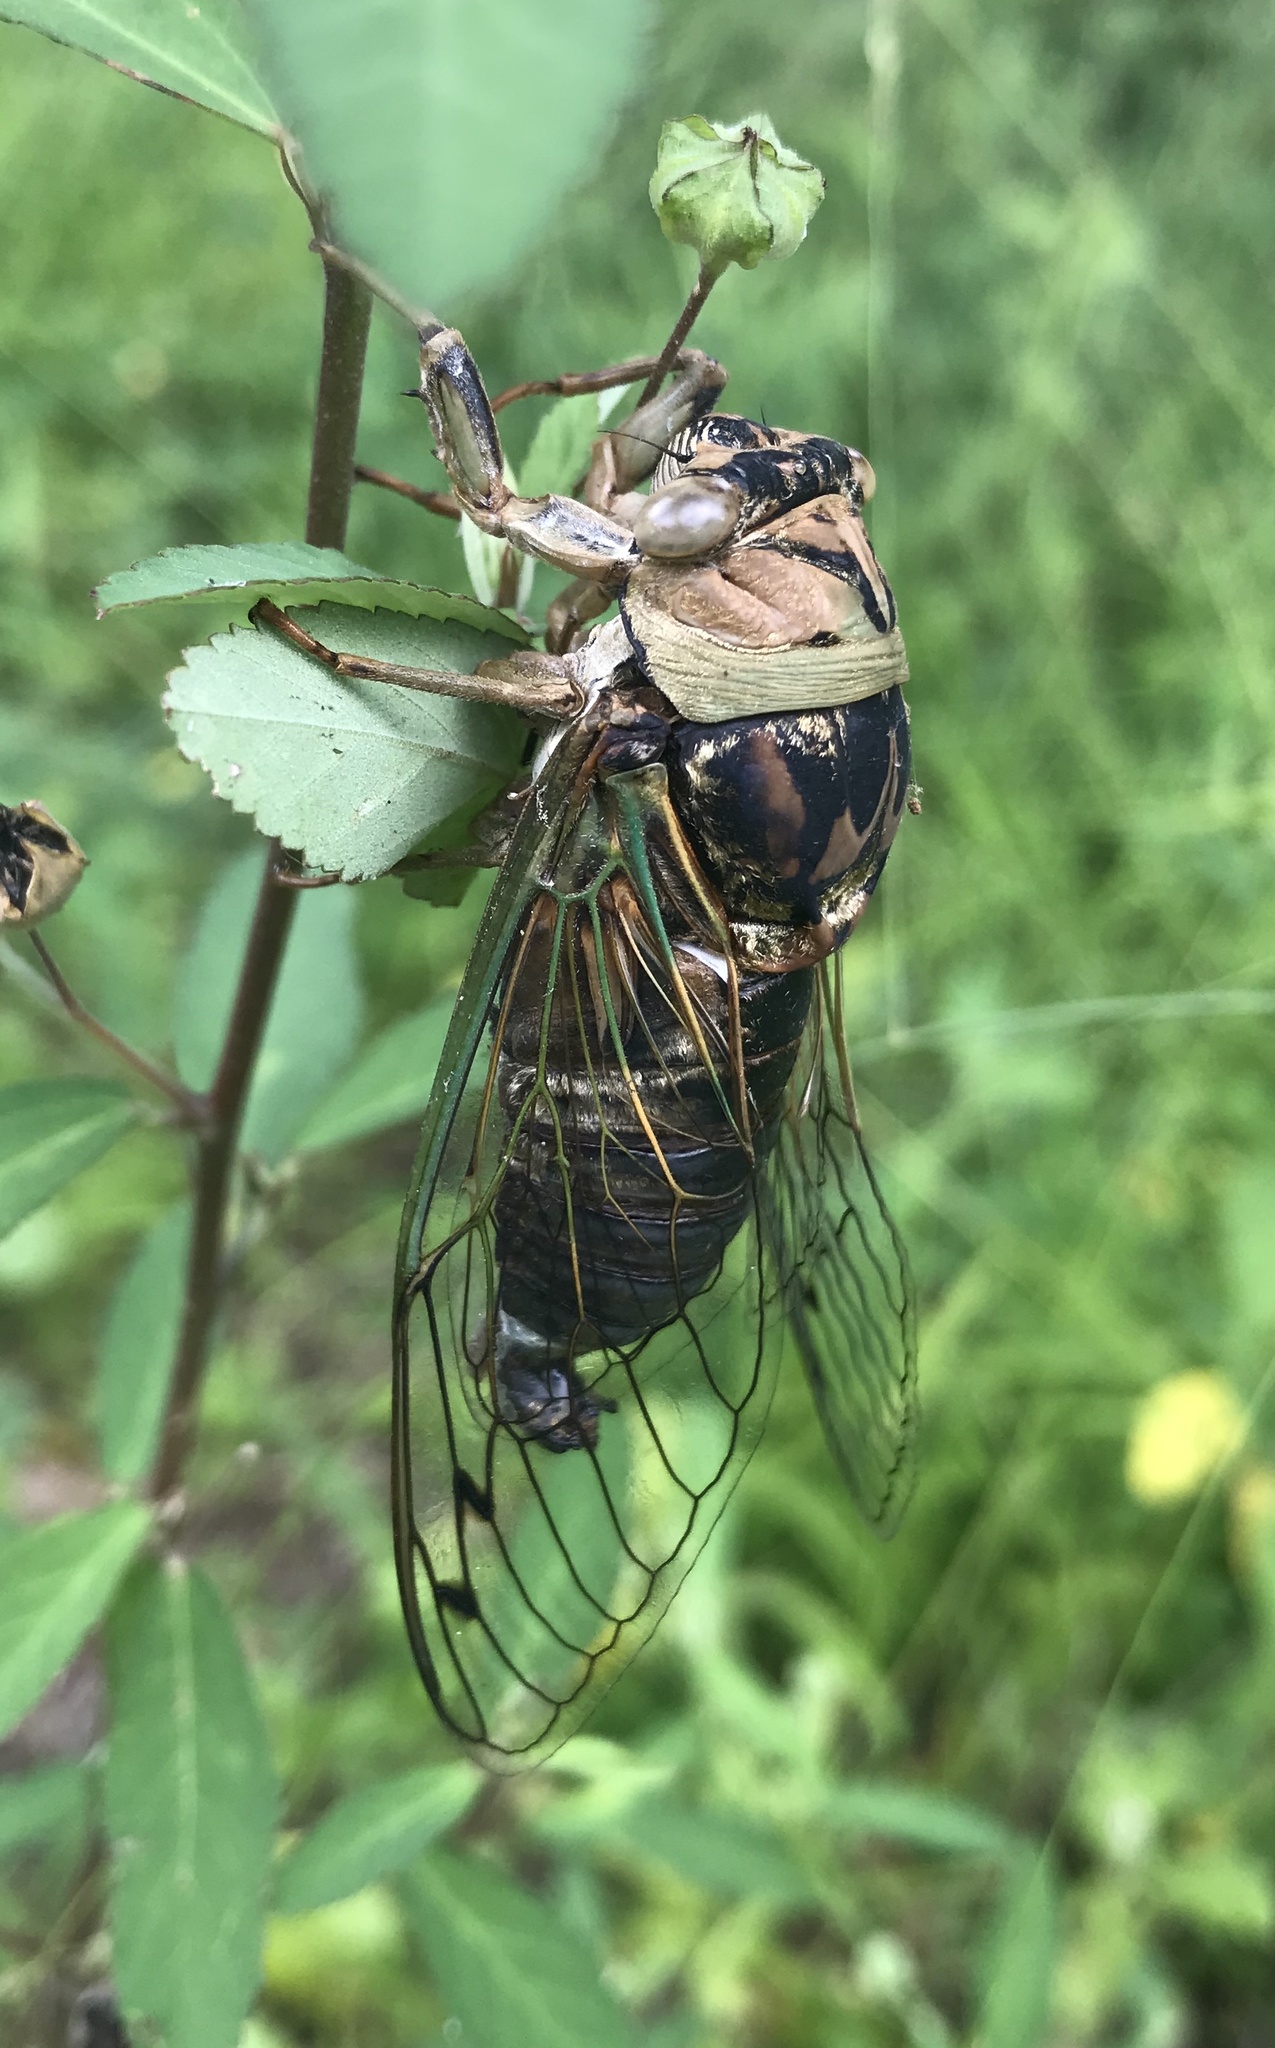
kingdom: Animalia
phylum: Arthropoda
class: Insecta
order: Hemiptera
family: Cicadidae
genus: Megatibicen
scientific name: Megatibicen resh
